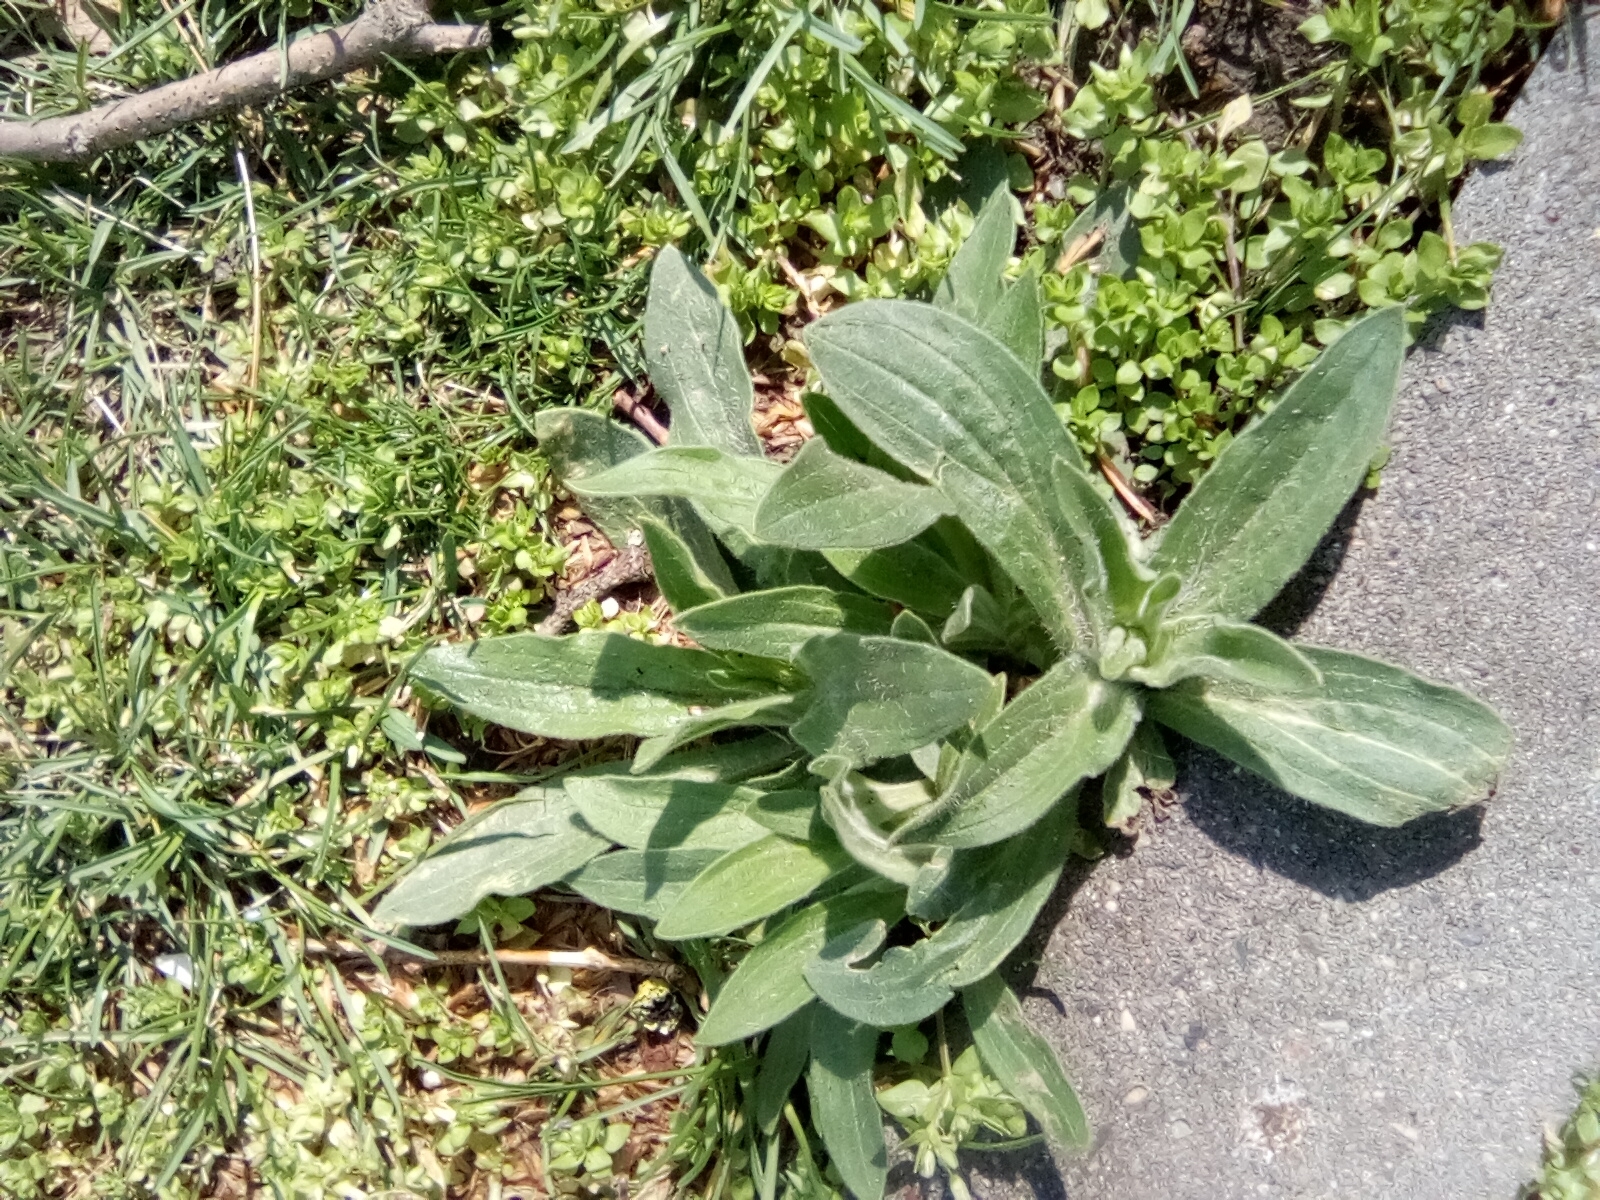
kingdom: Plantae
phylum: Tracheophyta
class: Magnoliopsida
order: Caryophyllales
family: Caryophyllaceae
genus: Silene
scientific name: Silene latifolia
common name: White campion
